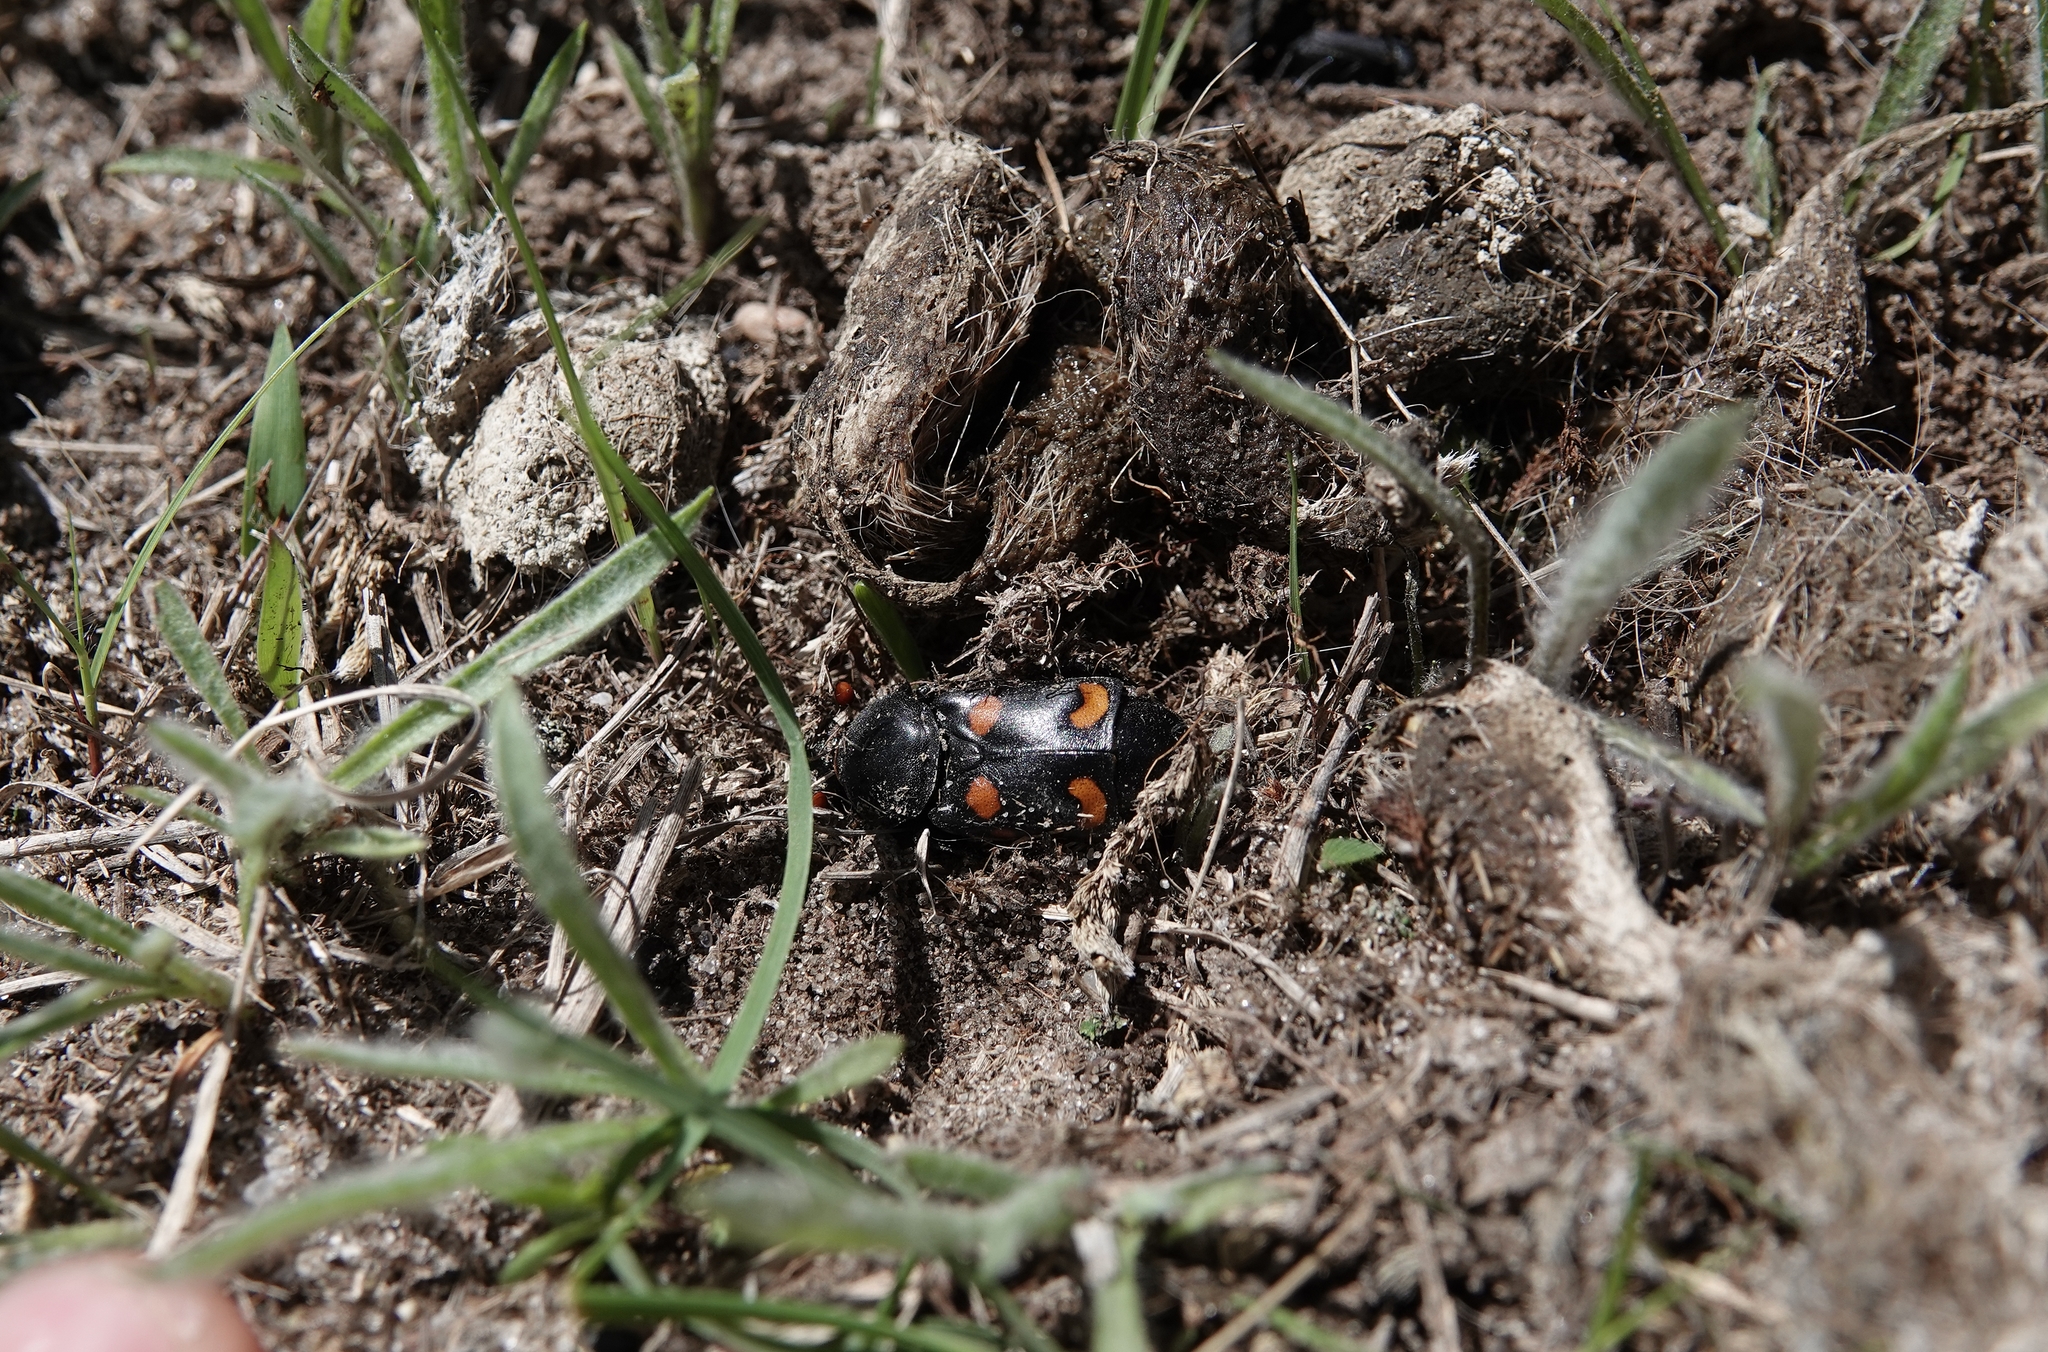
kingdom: Animalia
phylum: Arthropoda
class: Insecta
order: Coleoptera
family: Staphylinidae
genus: Nicrophorus
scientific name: Nicrophorus carolinus
